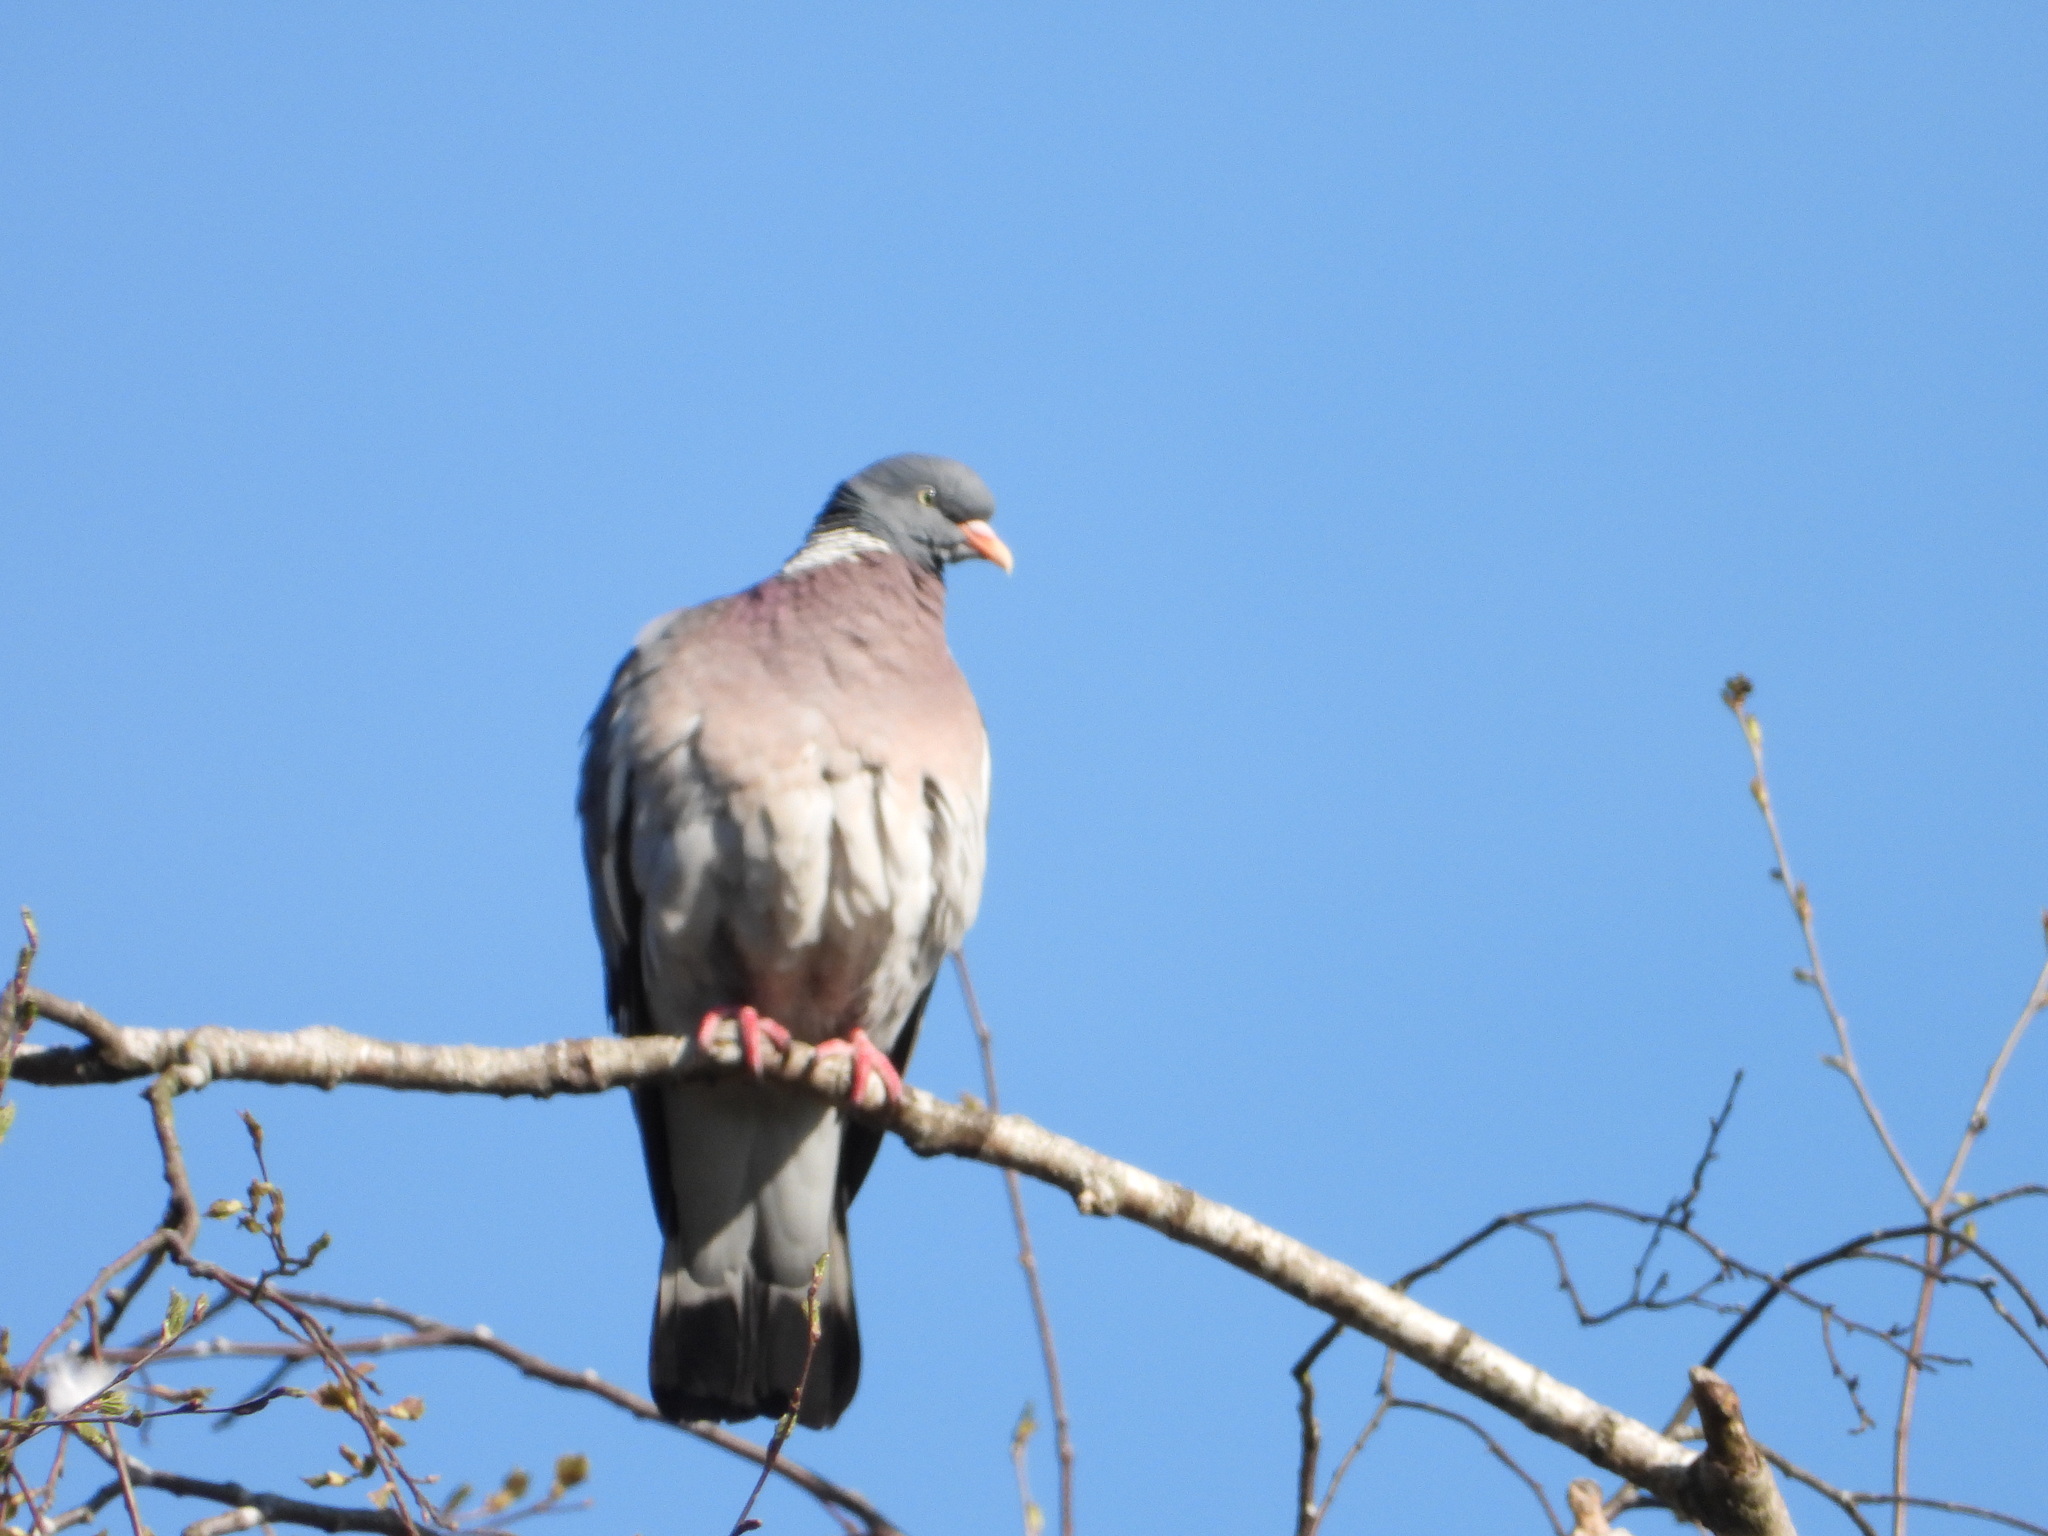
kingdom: Animalia
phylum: Chordata
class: Aves
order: Columbiformes
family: Columbidae
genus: Columba
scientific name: Columba palumbus
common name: Common wood pigeon
